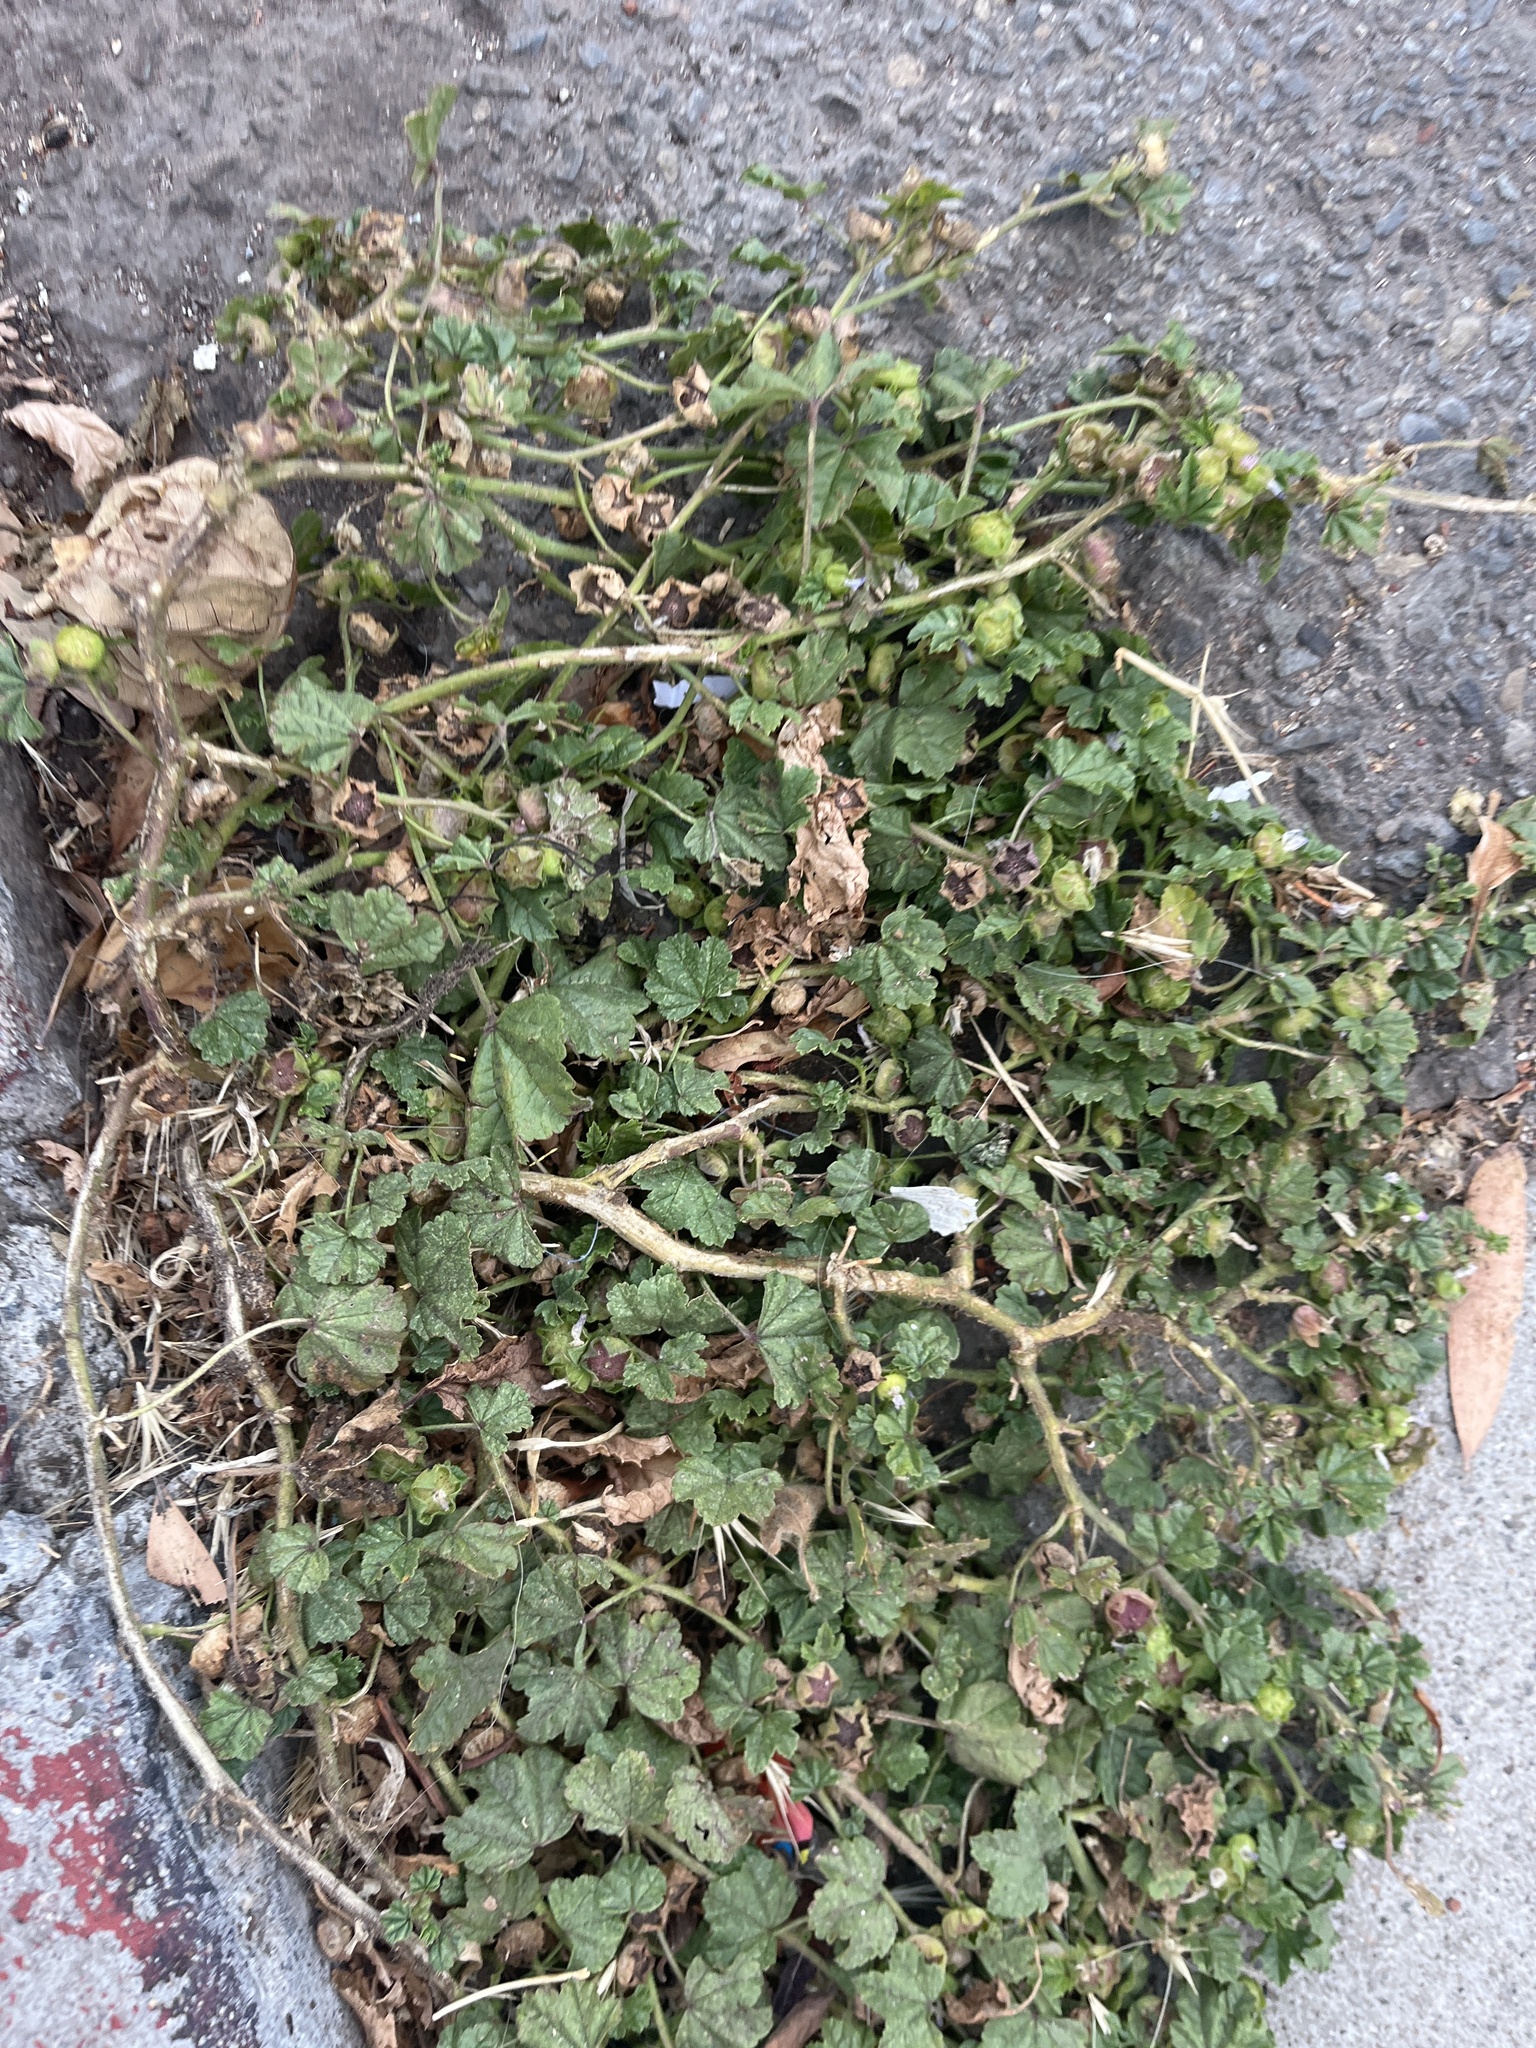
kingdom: Plantae
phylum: Tracheophyta
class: Magnoliopsida
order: Malvales
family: Malvaceae
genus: Malva
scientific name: Malva nicaeensis
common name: French mallow
